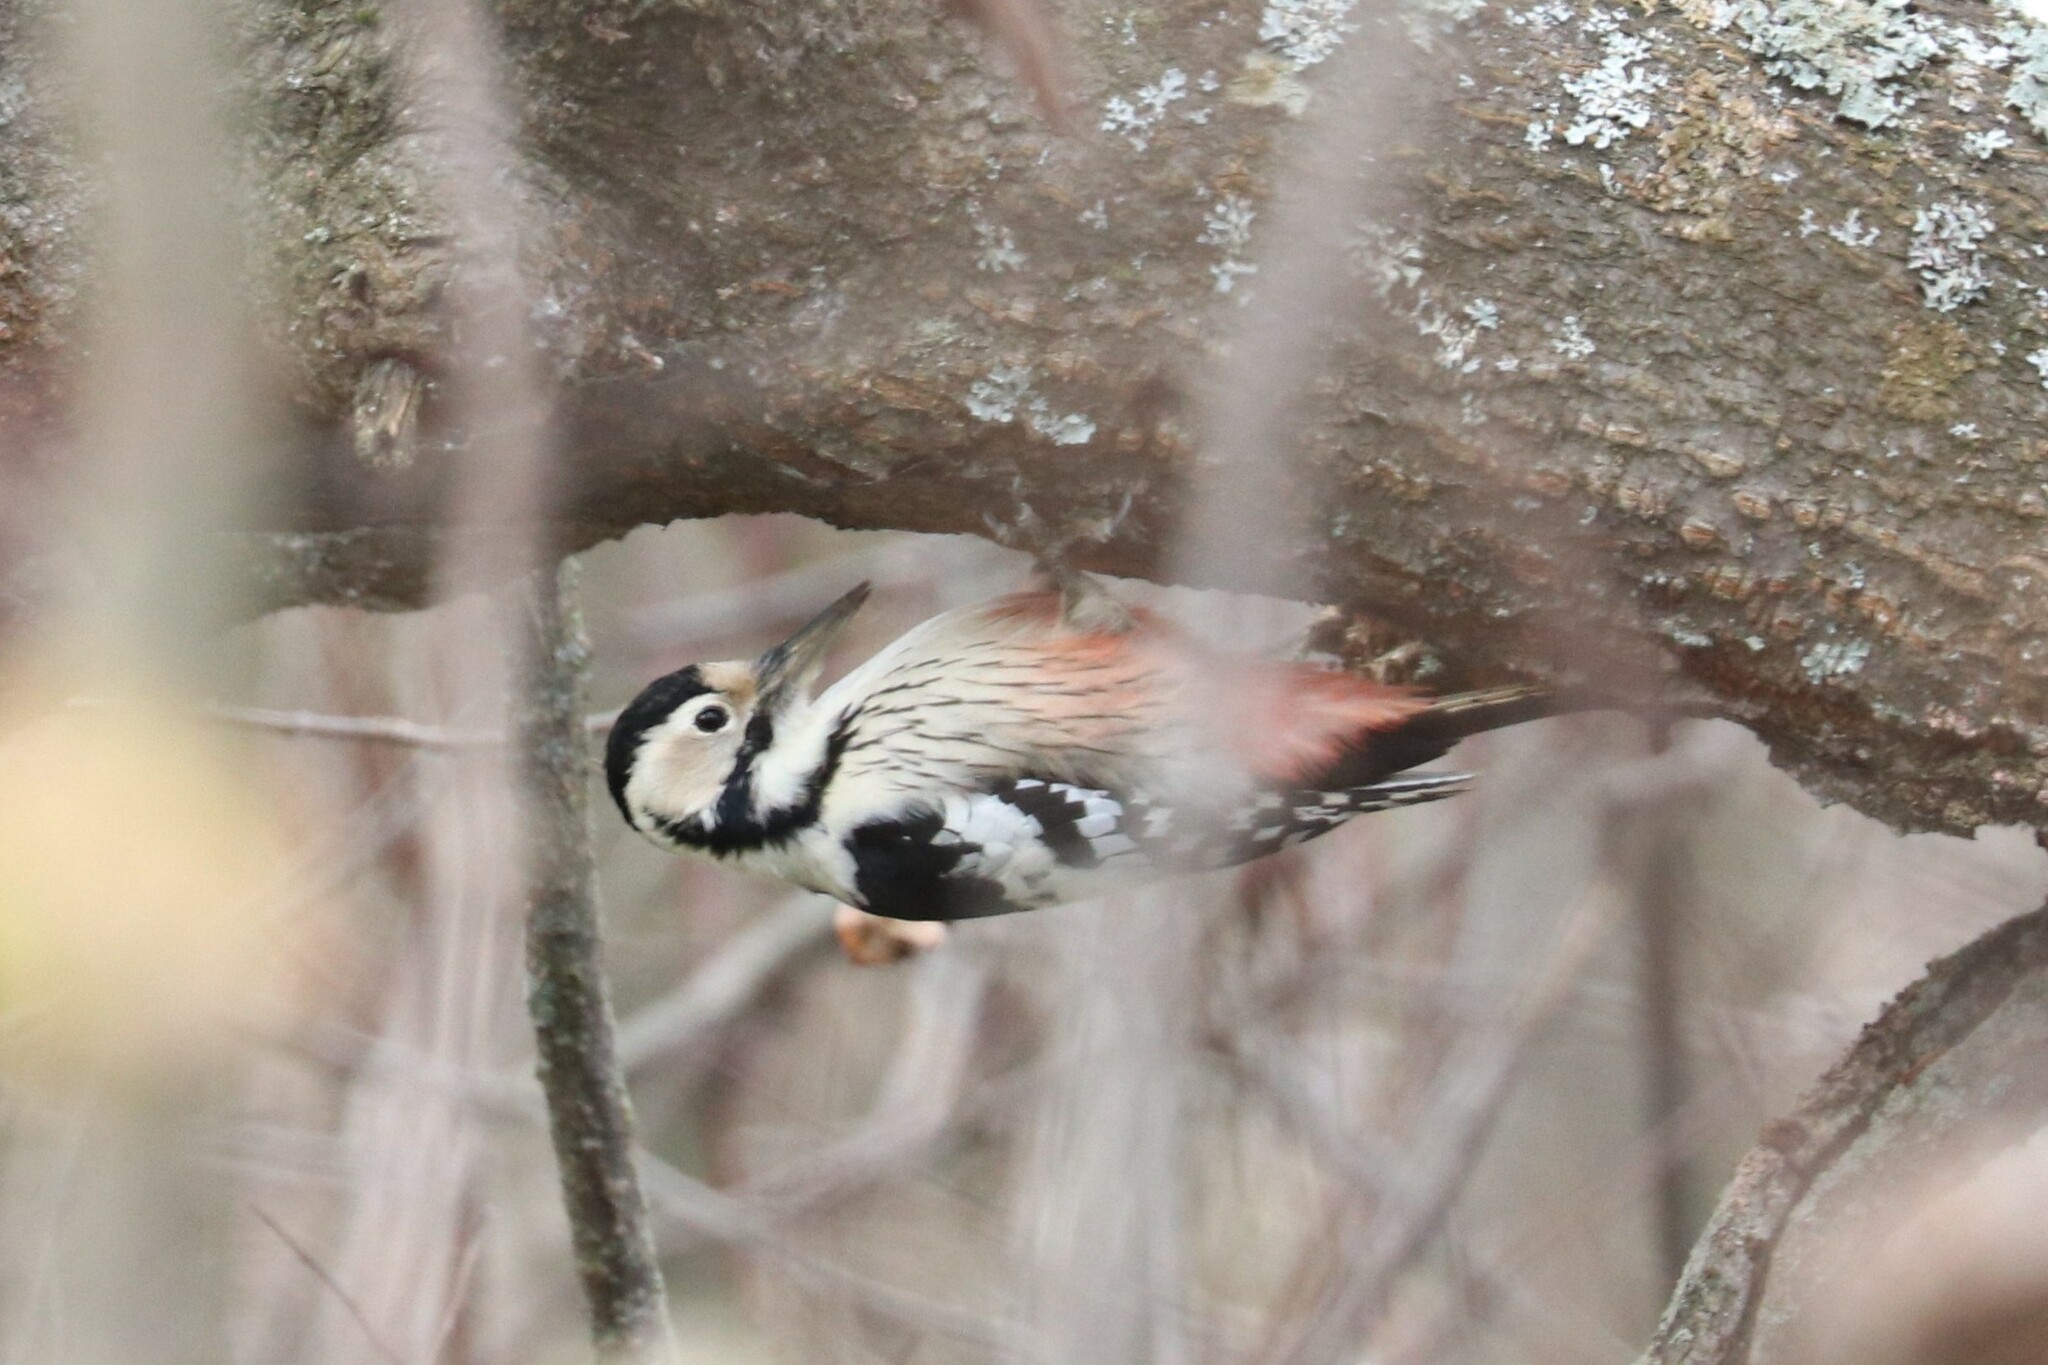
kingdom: Animalia
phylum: Chordata
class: Aves
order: Piciformes
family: Picidae
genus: Dendrocopos
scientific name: Dendrocopos leucotos
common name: White-backed woodpecker
